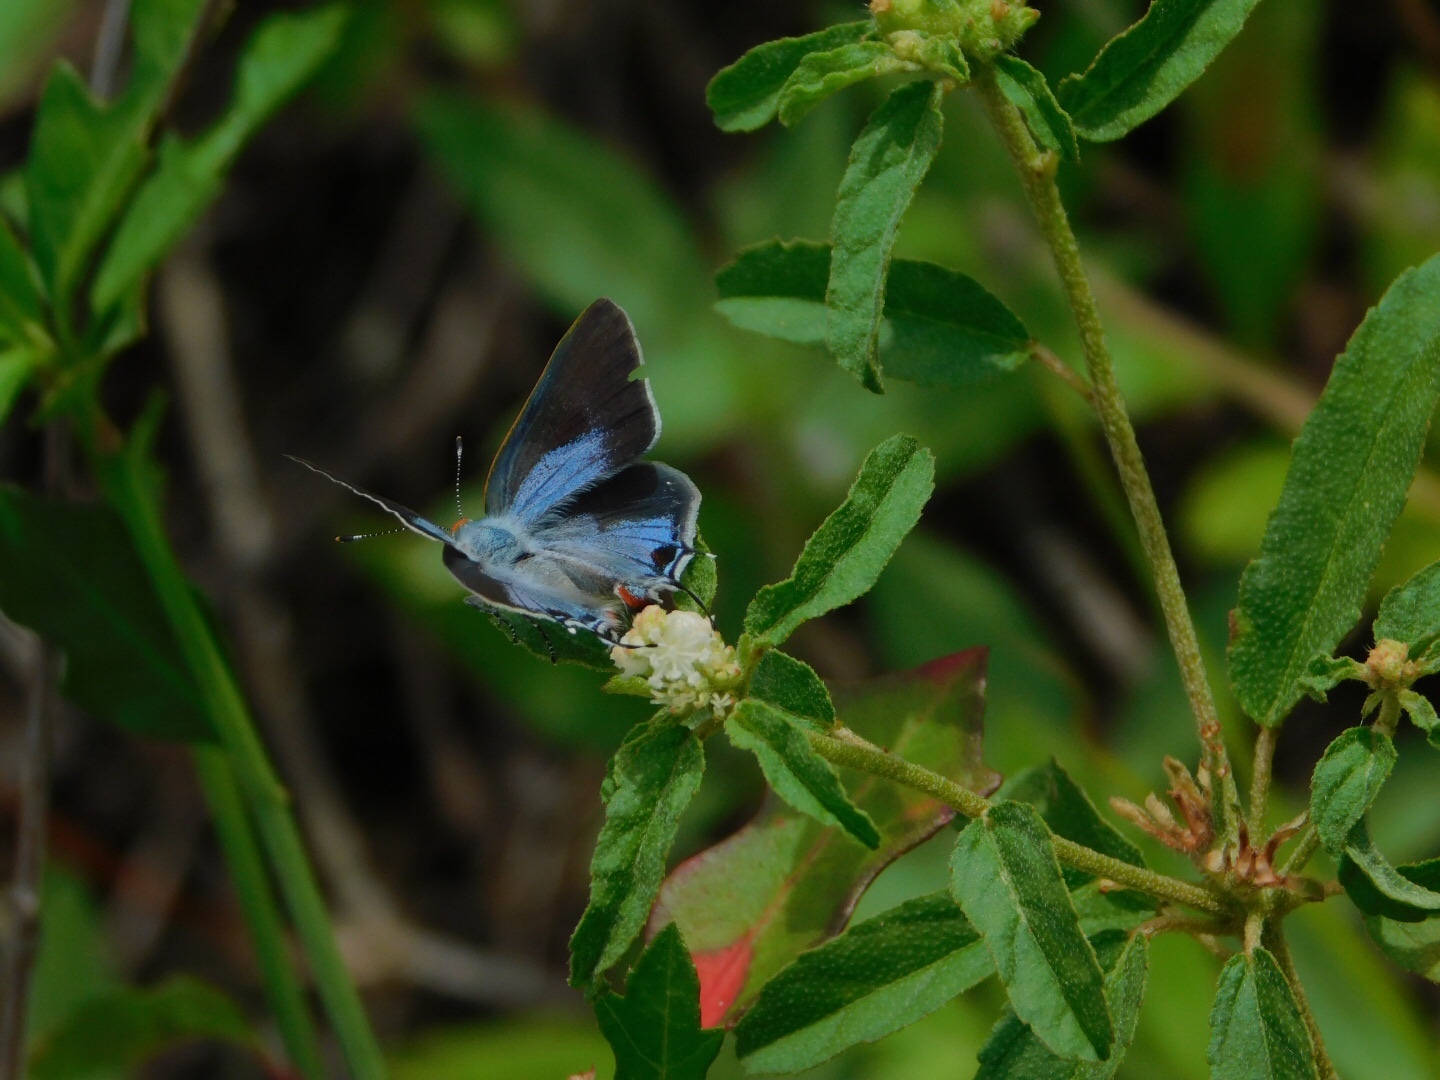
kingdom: Animalia
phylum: Arthropoda
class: Insecta
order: Lepidoptera
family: Lycaenidae
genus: Thecla
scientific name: Thecla martialis
